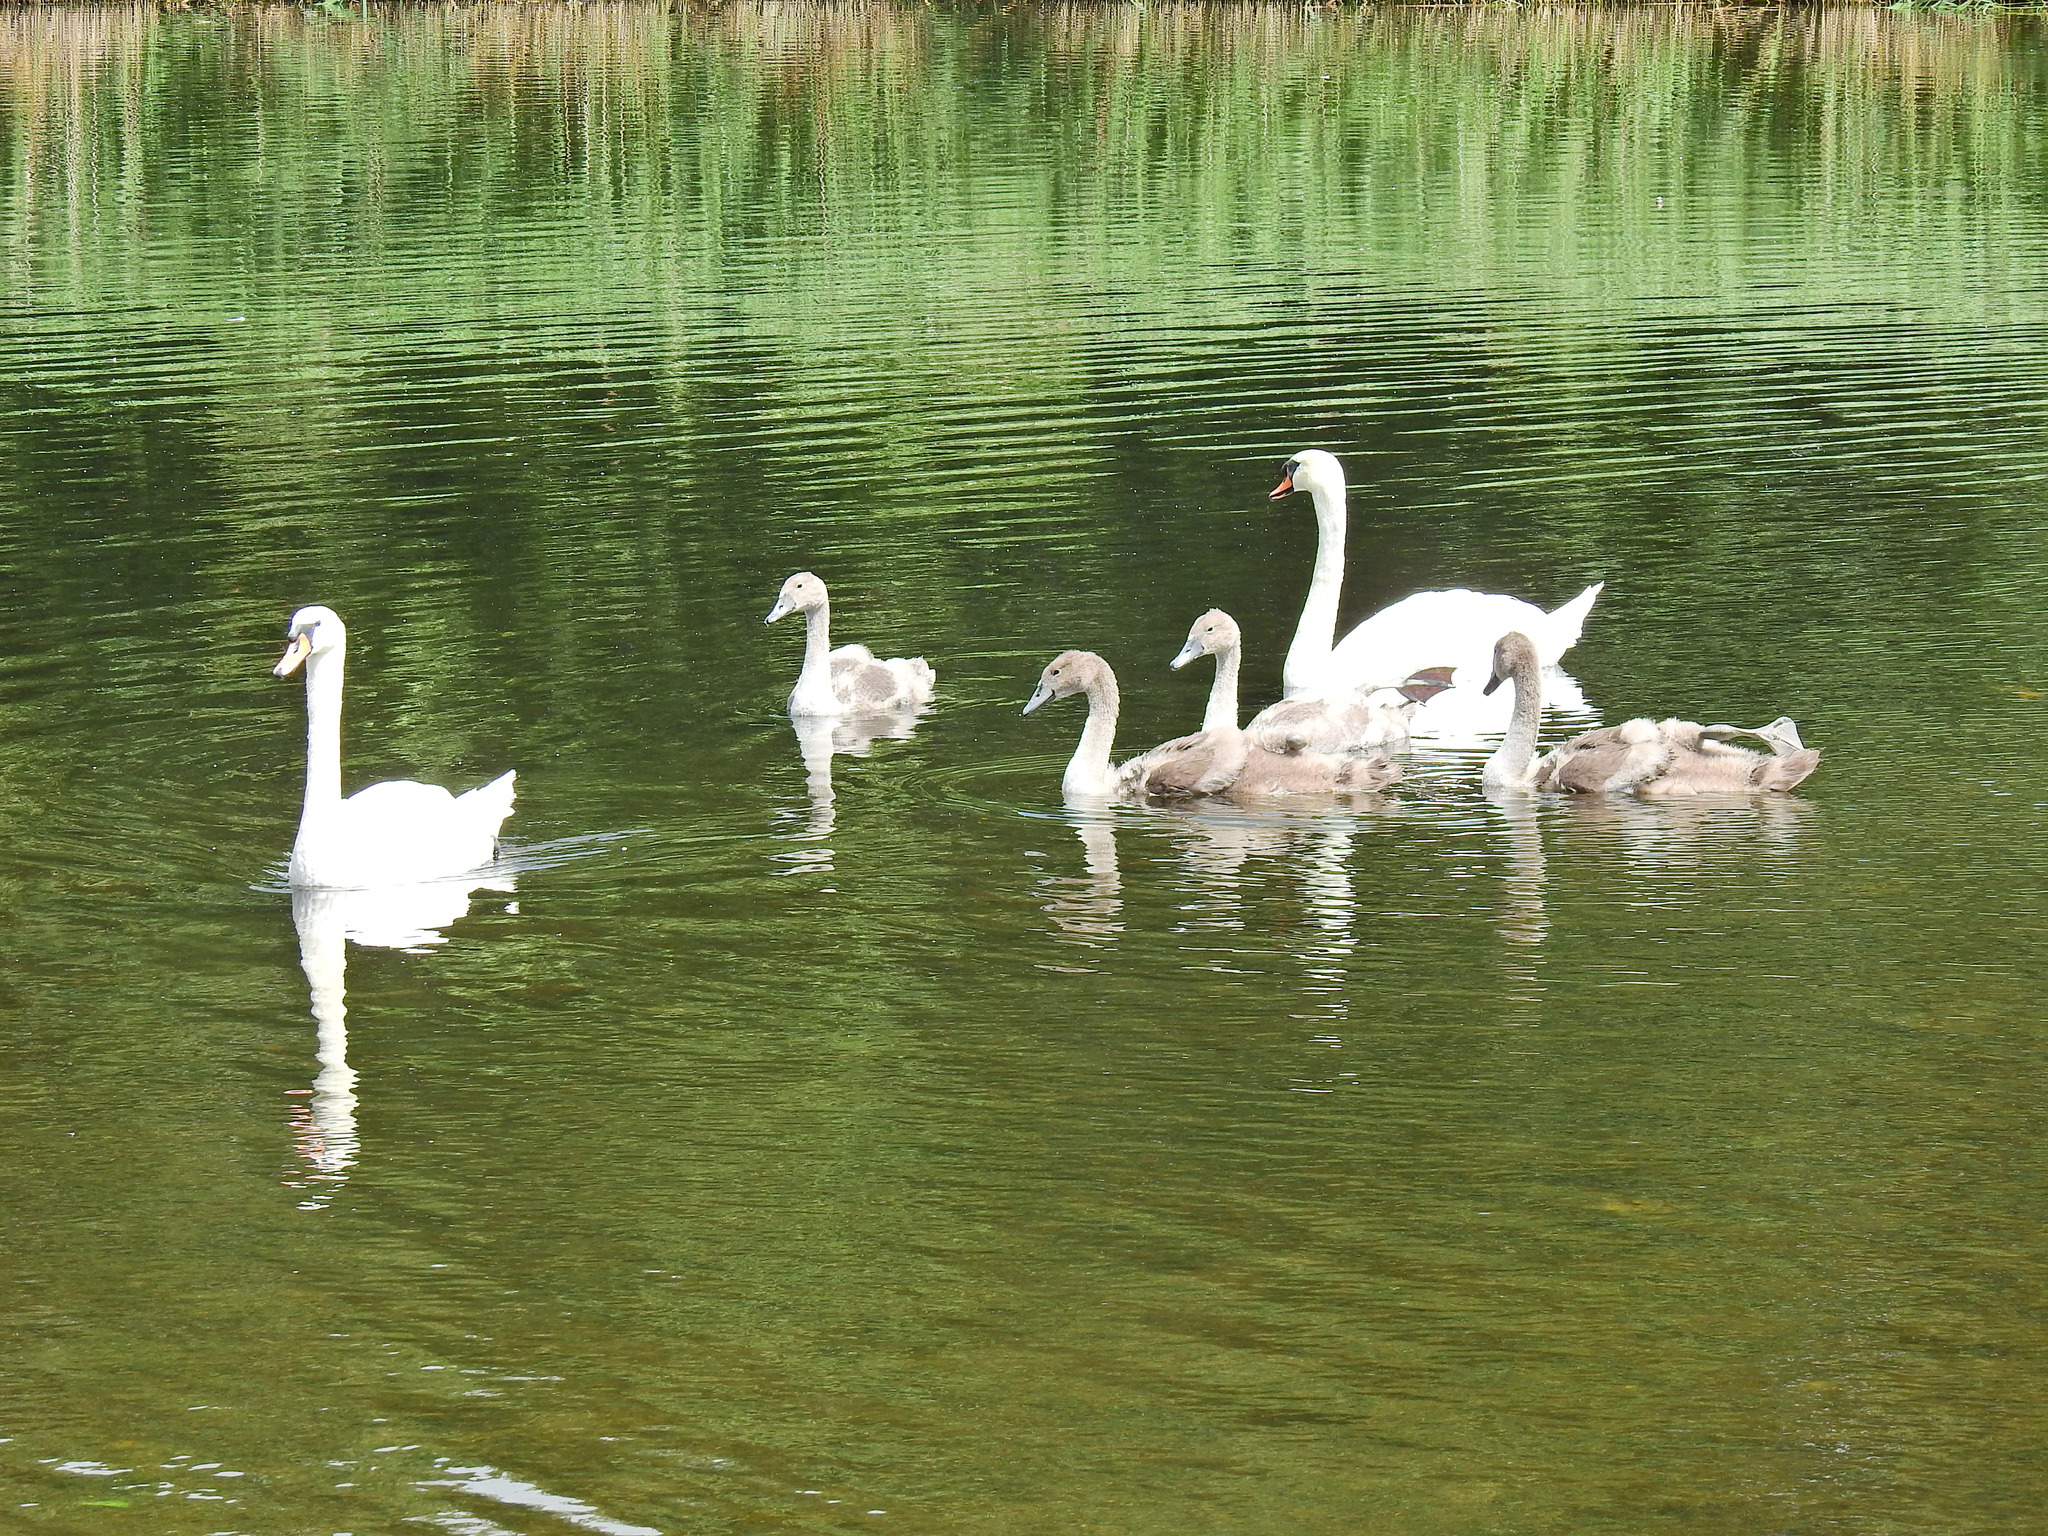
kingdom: Animalia
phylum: Chordata
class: Aves
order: Anseriformes
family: Anatidae
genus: Cygnus
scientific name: Cygnus olor
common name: Mute swan
